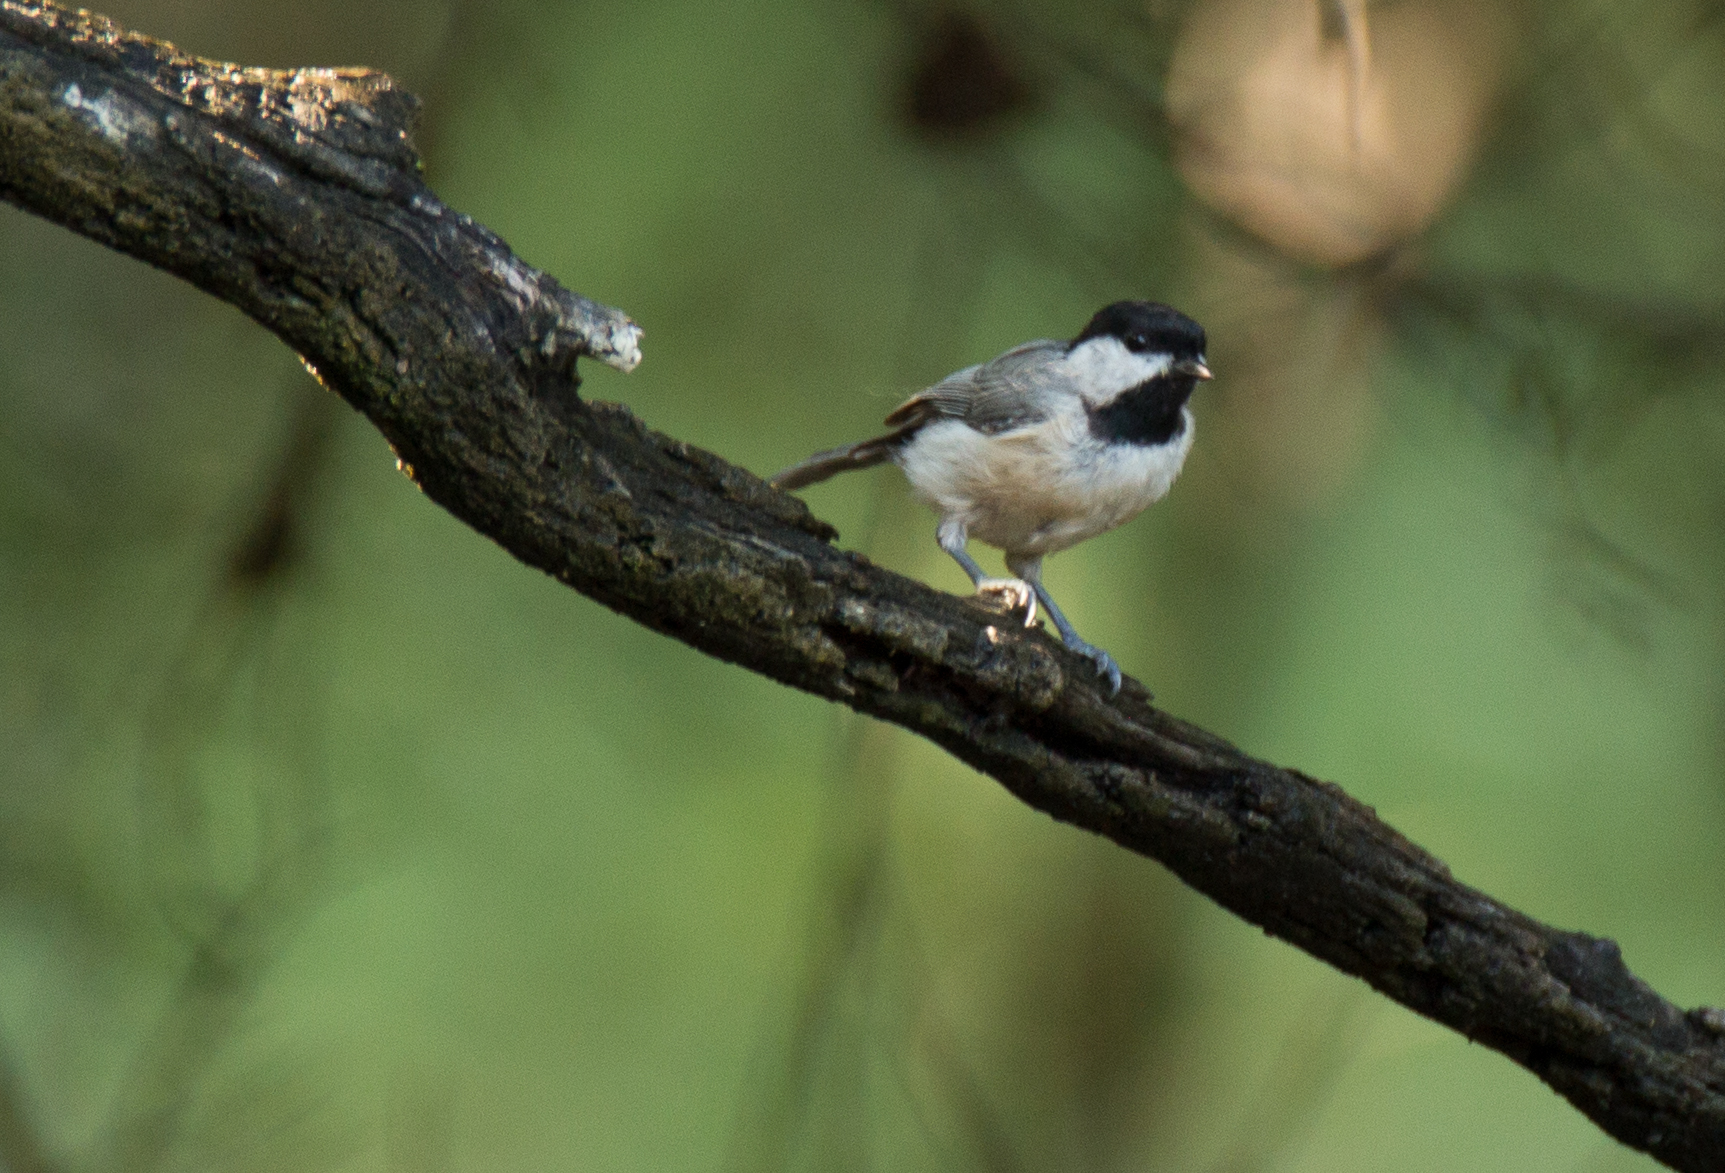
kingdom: Animalia
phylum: Chordata
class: Aves
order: Passeriformes
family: Paridae
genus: Poecile
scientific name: Poecile carolinensis
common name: Carolina chickadee
